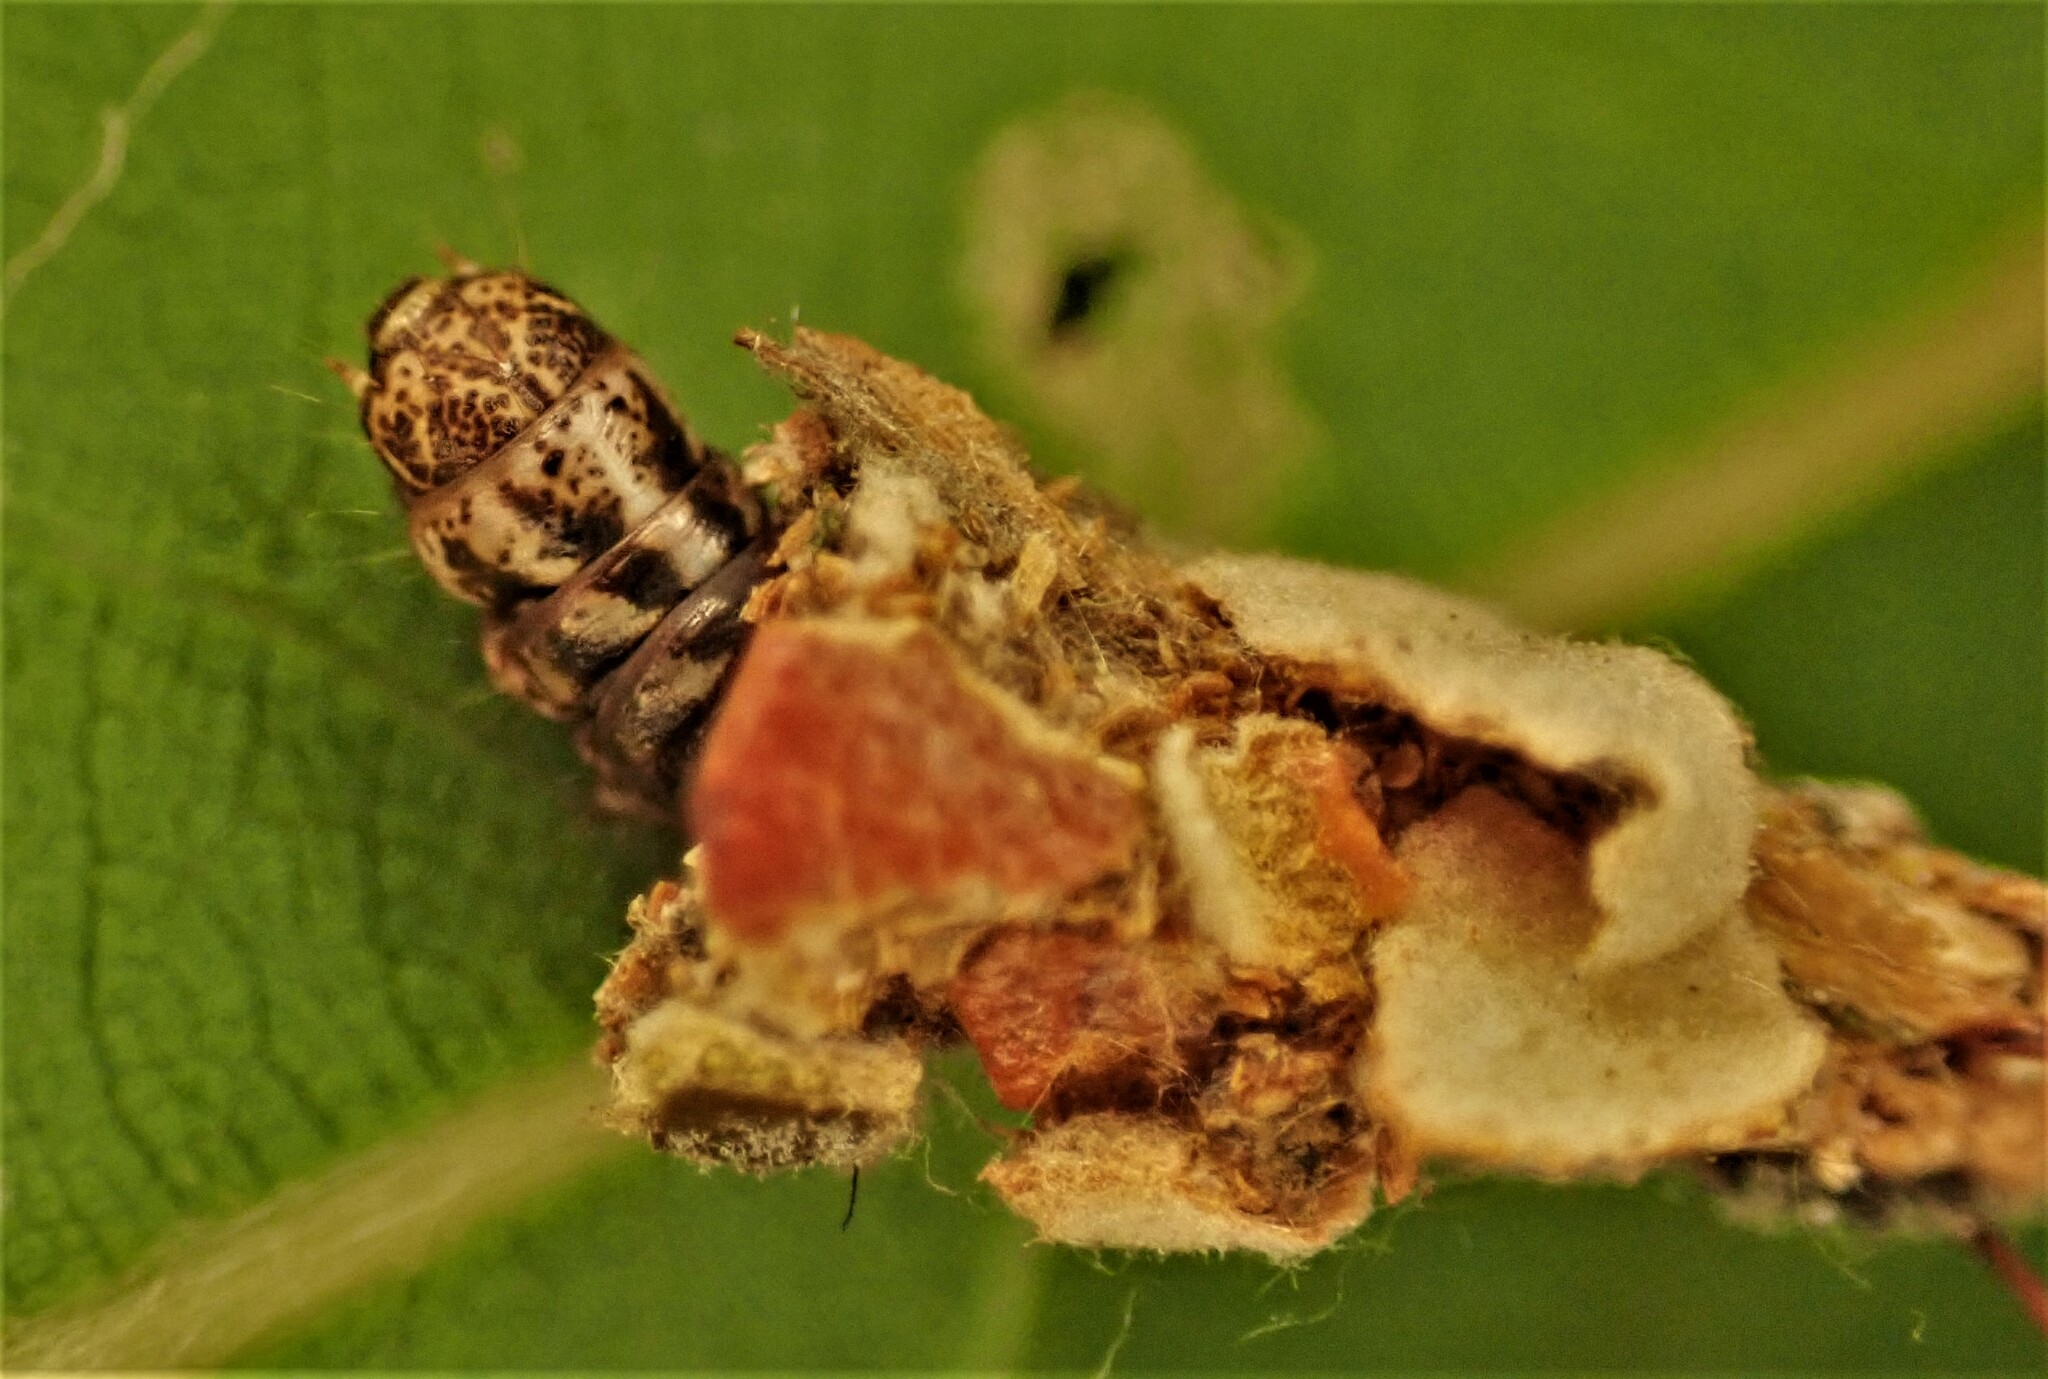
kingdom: Animalia
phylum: Arthropoda
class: Insecta
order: Lepidoptera
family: Psychidae
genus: Liothula
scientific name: Liothula omnivora
